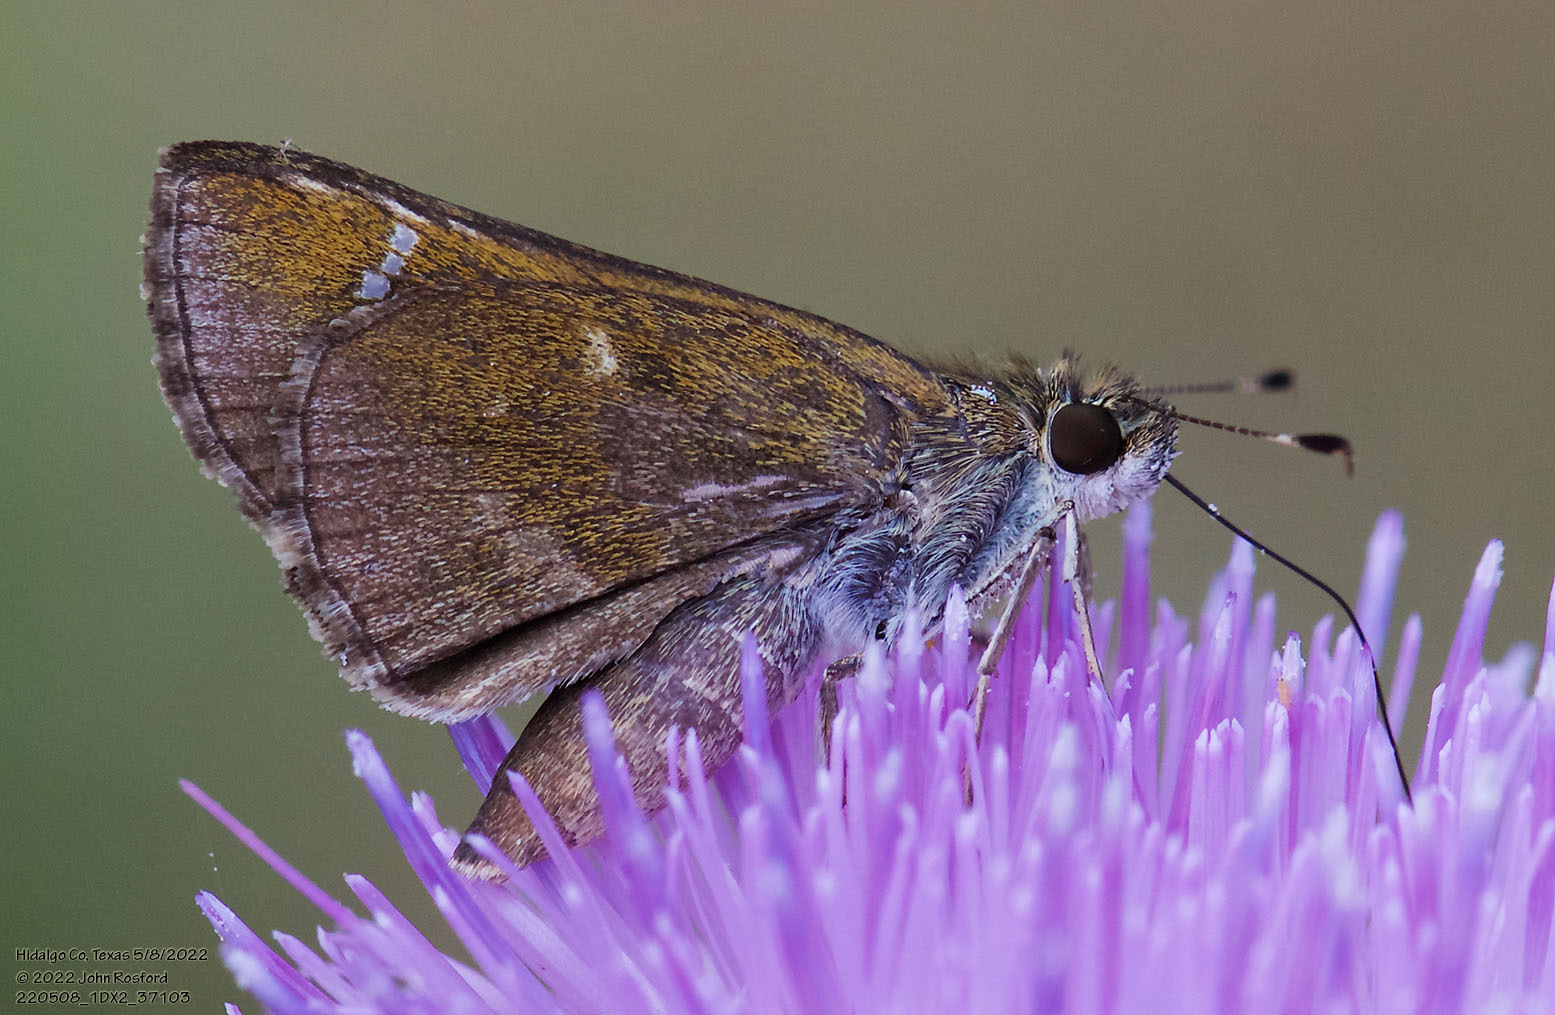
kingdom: Animalia
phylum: Arthropoda
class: Insecta
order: Lepidoptera
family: Hesperiidae
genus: Lerema
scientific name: Lerema accius
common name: Clouded skipper
